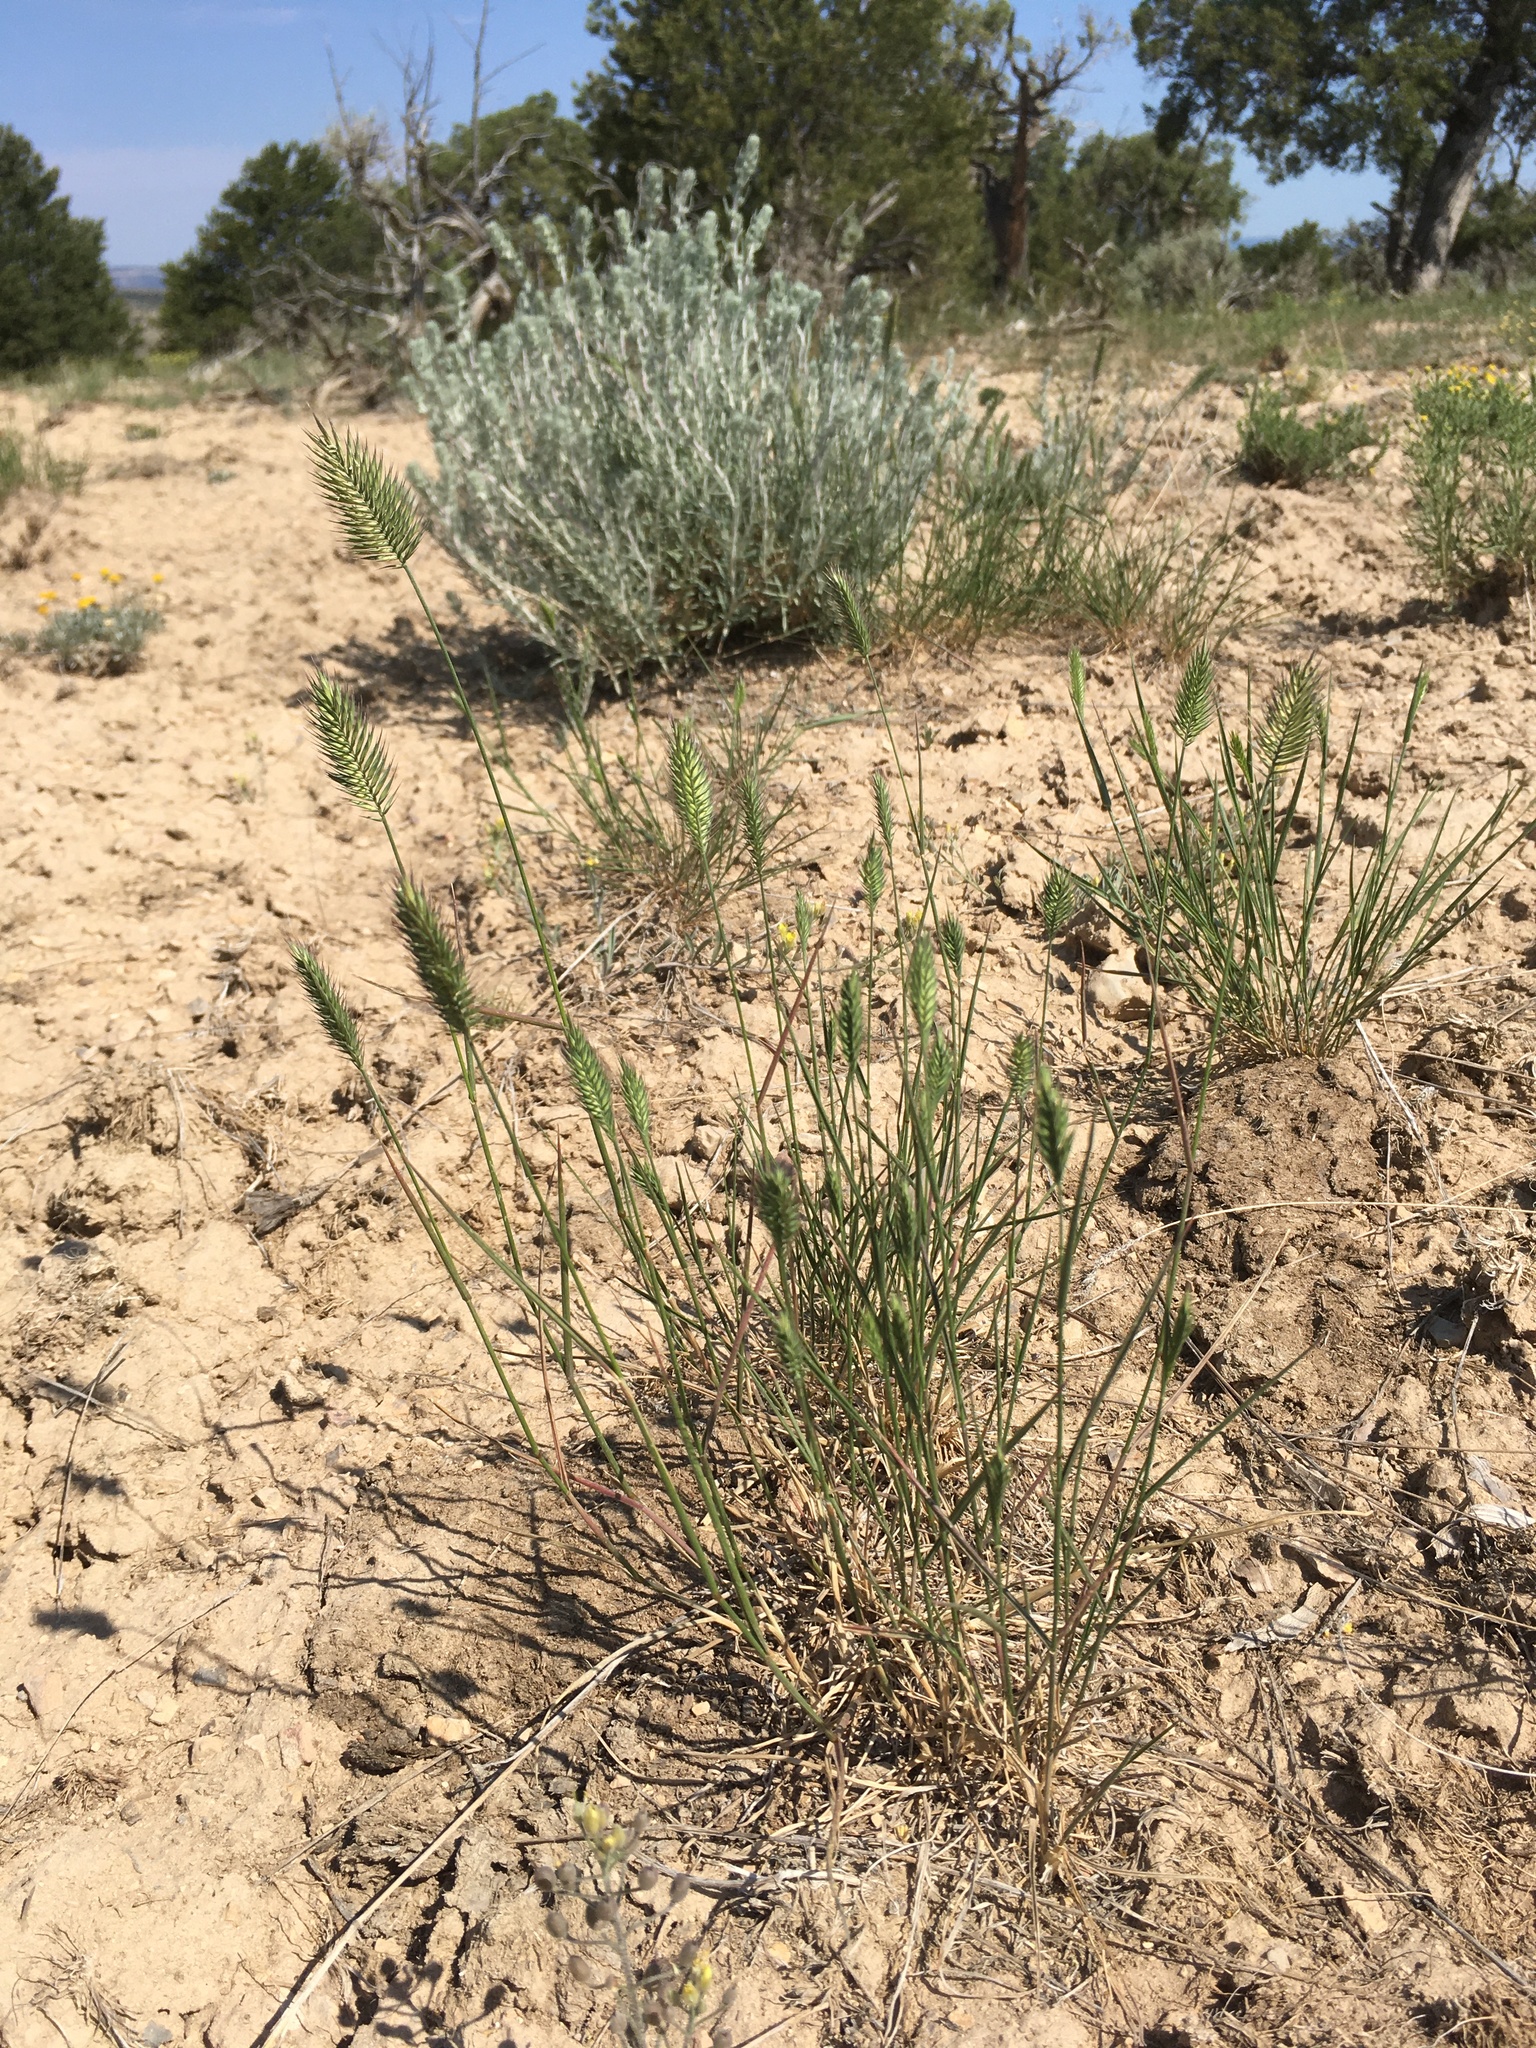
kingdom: Plantae
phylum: Tracheophyta
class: Liliopsida
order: Poales
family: Poaceae
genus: Agropyron
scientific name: Agropyron cristatum
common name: Crested wheatgrass
